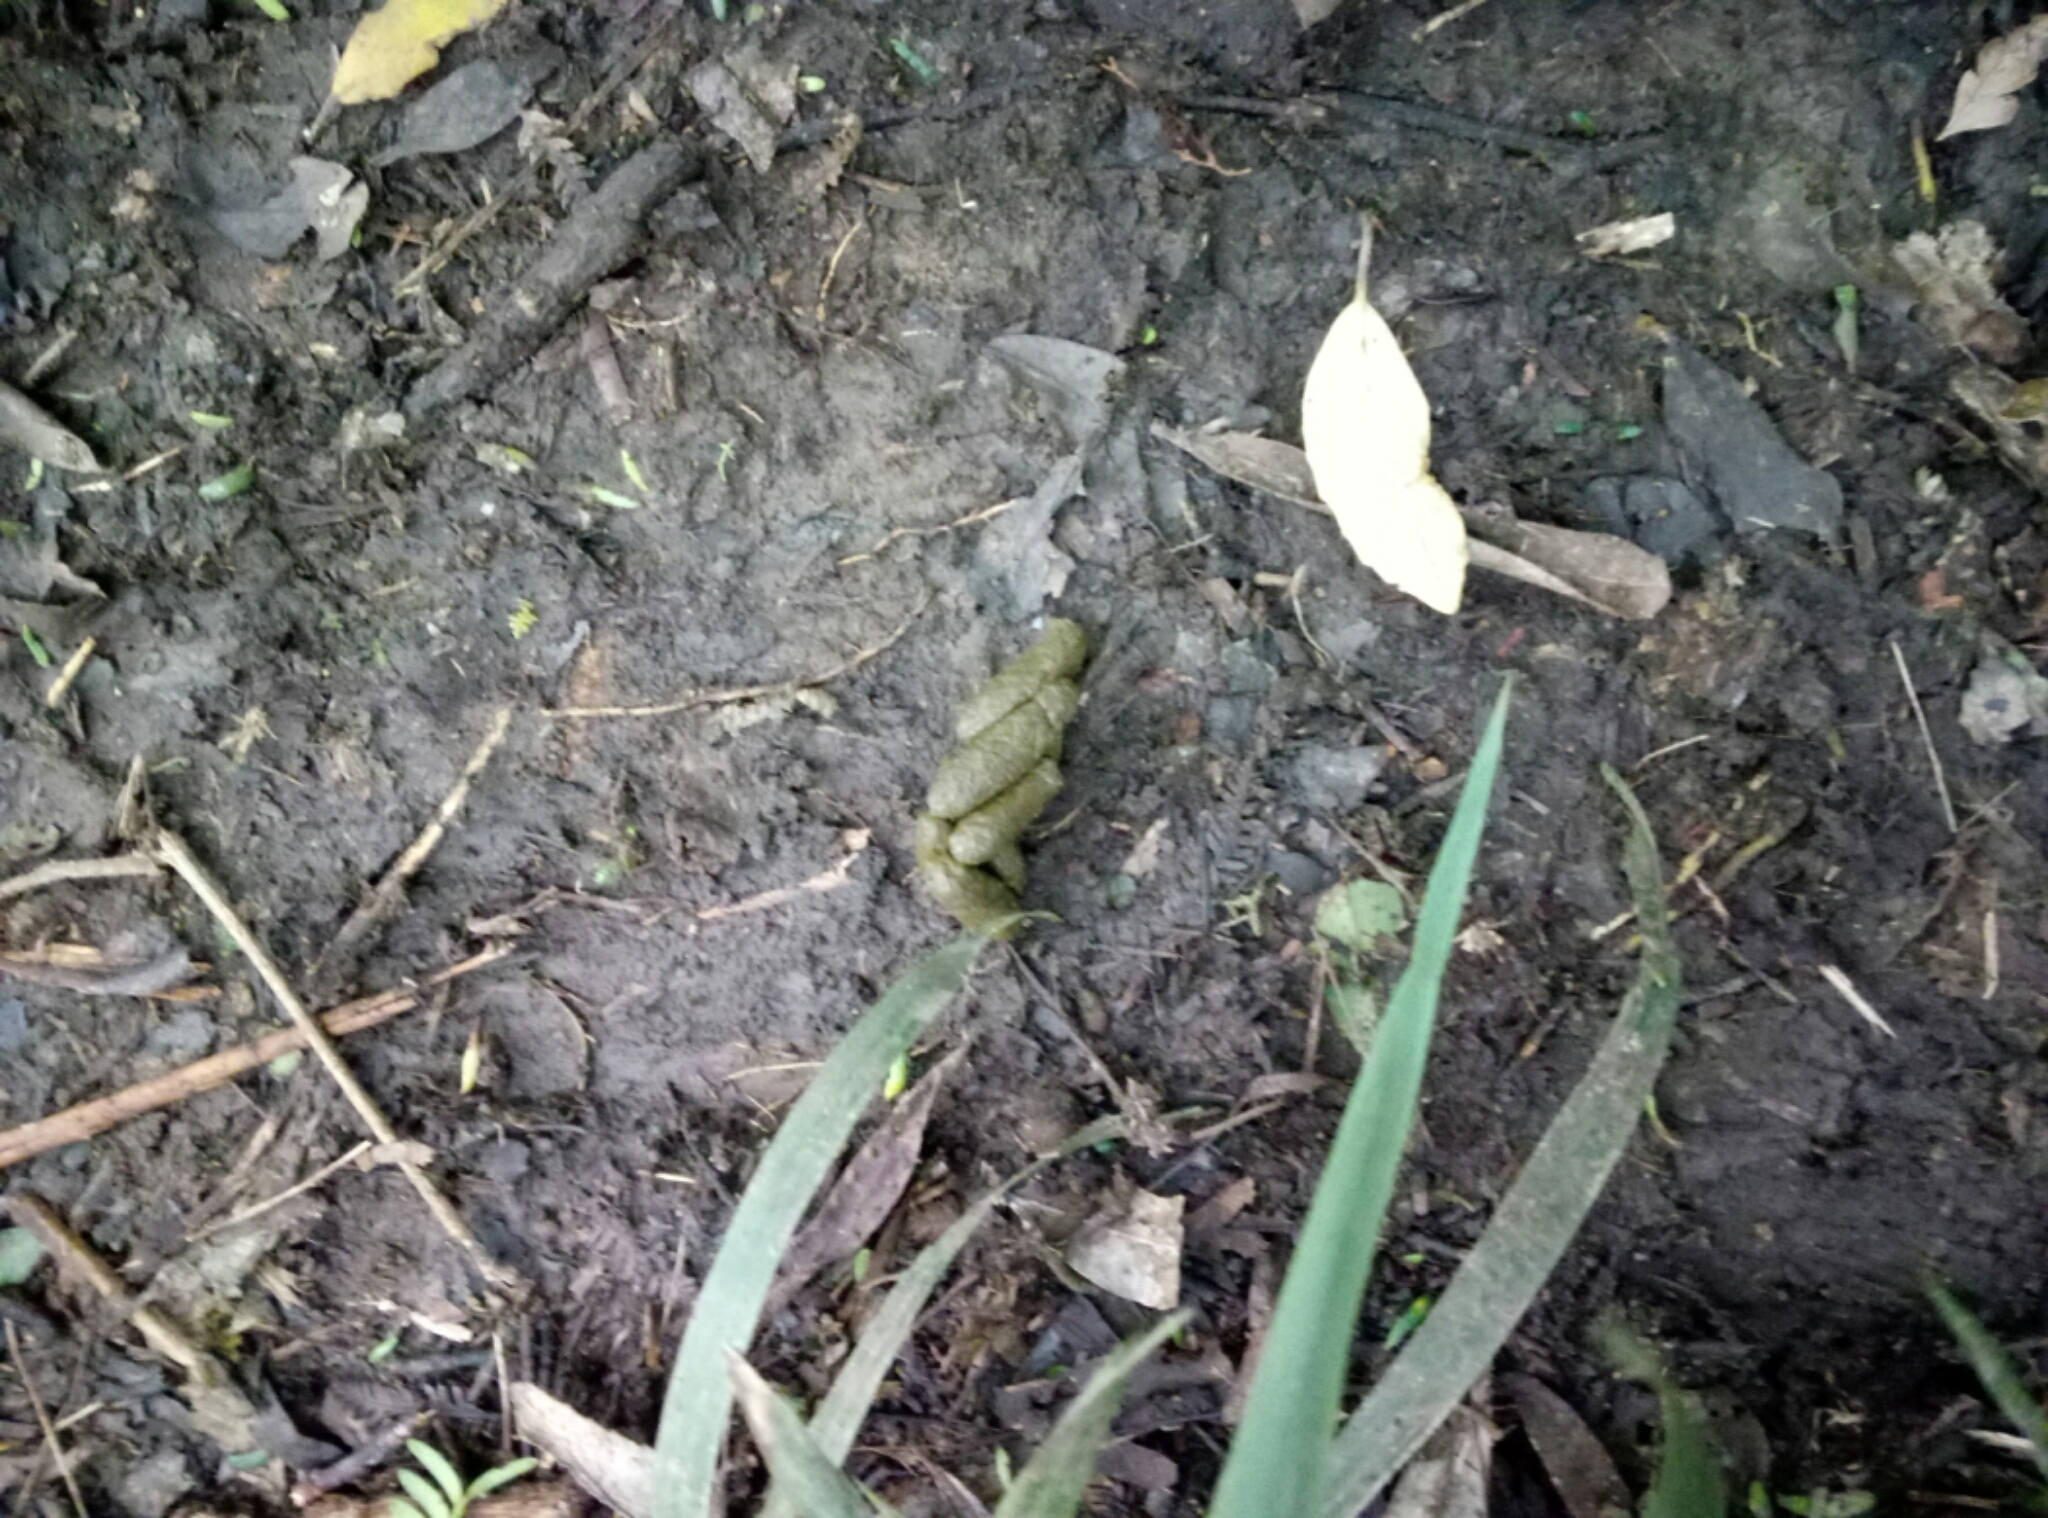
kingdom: Animalia
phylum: Chordata
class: Mammalia
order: Diprotodontia
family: Phalangeridae
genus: Trichosurus
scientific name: Trichosurus vulpecula
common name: Common brushtail
